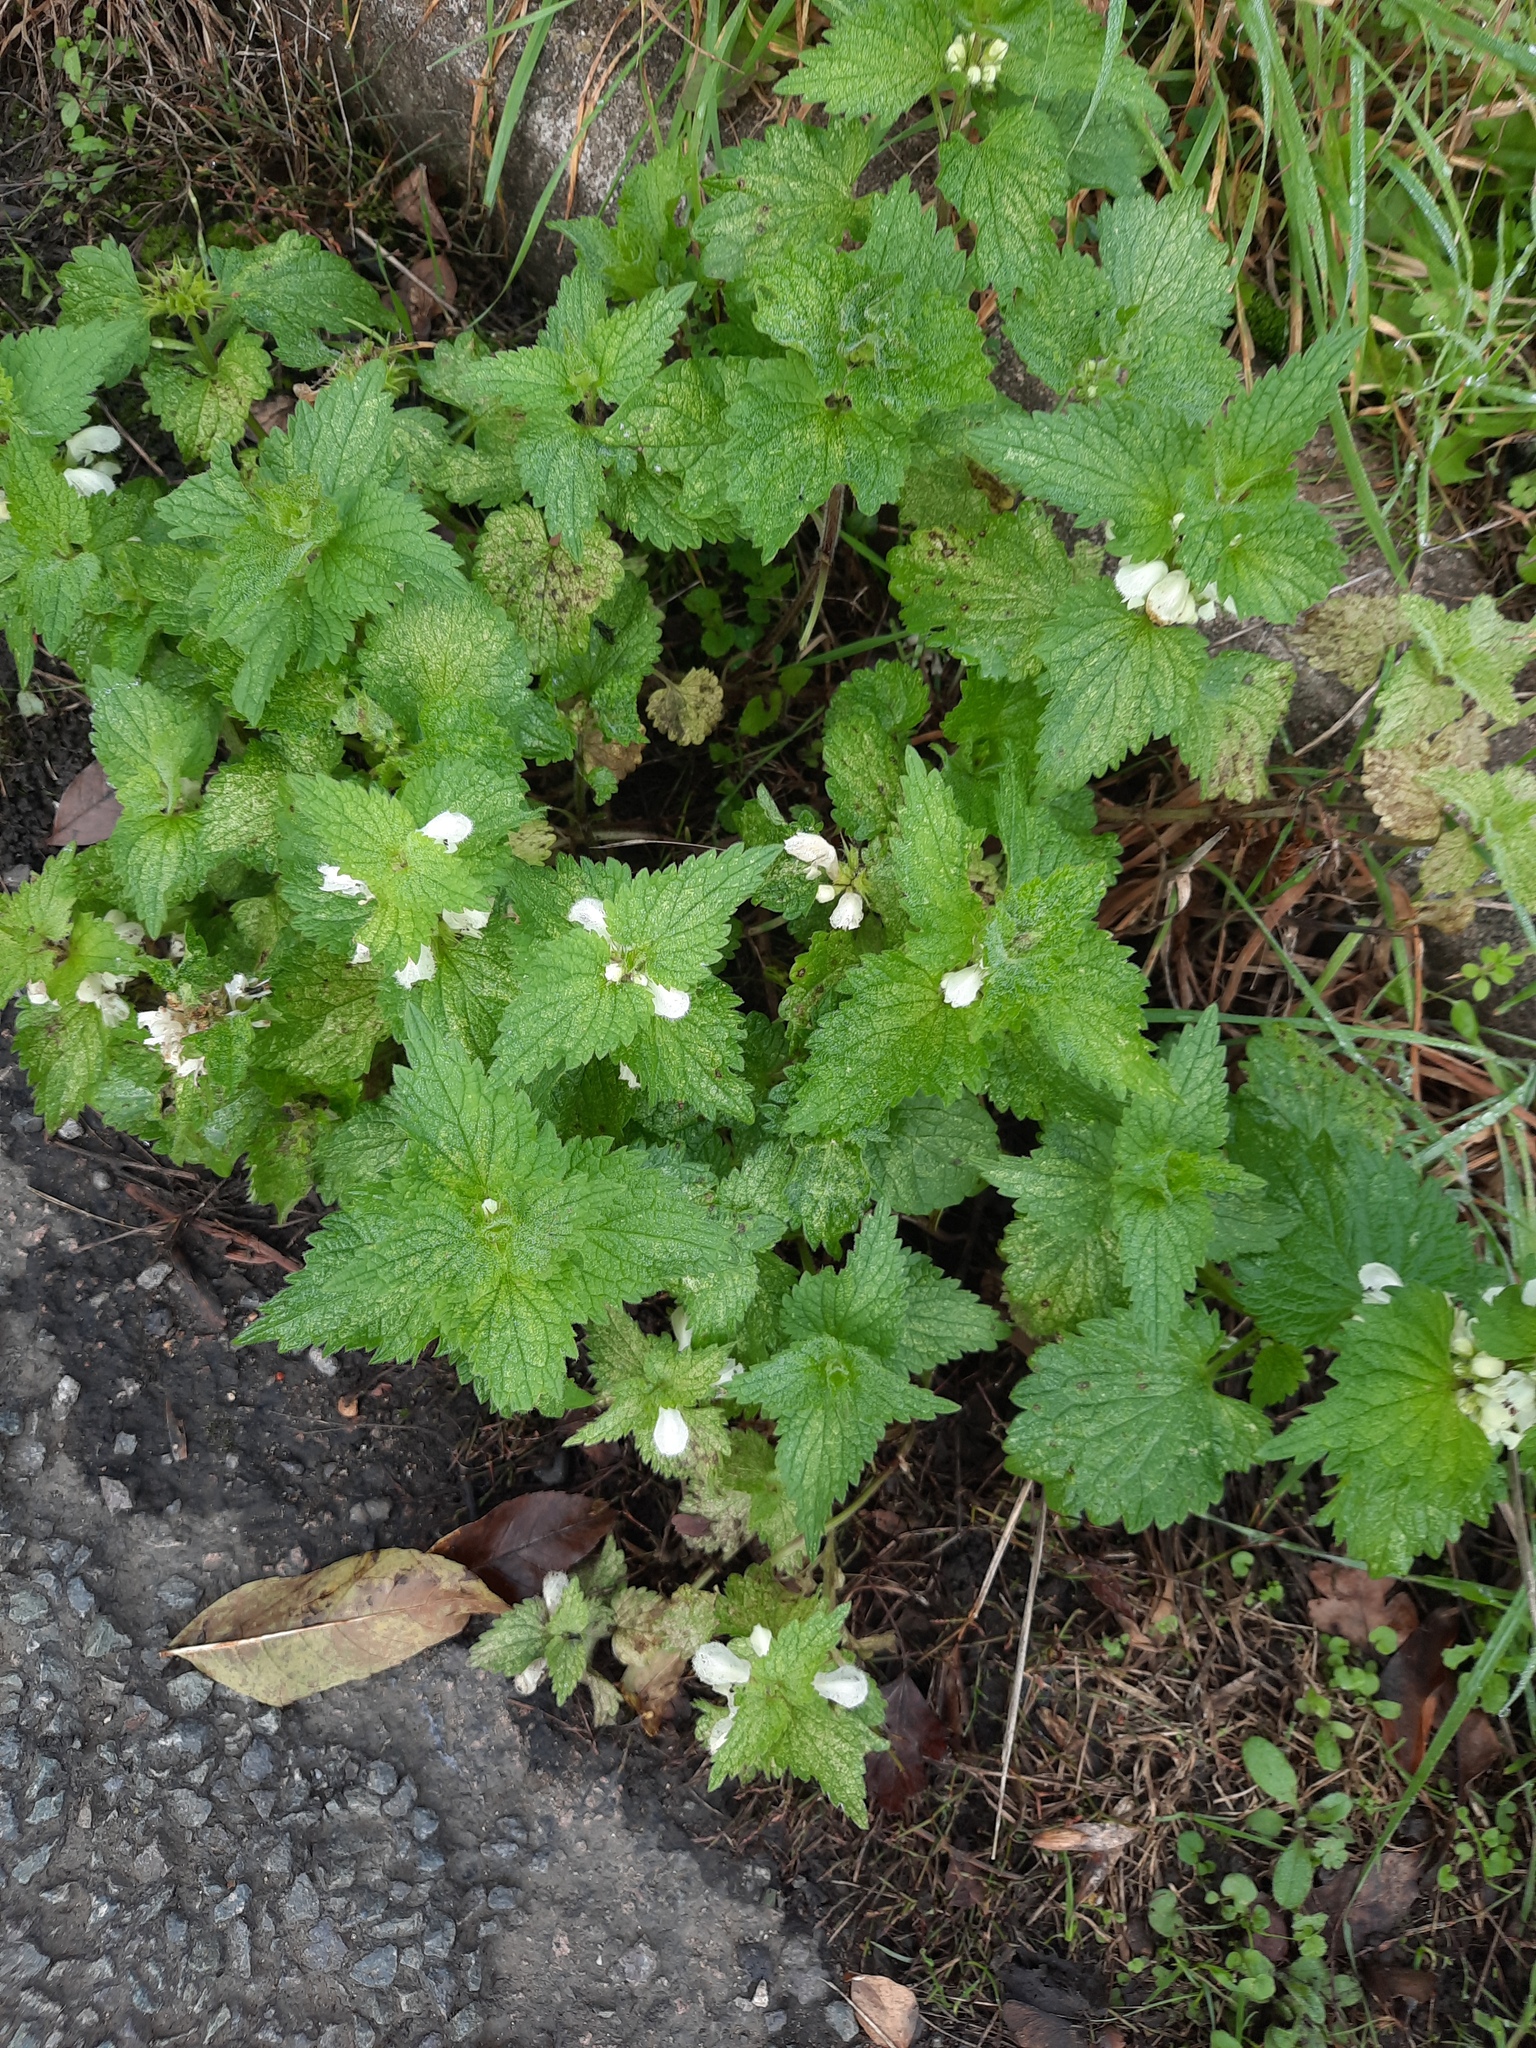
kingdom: Plantae
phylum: Tracheophyta
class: Magnoliopsida
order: Lamiales
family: Lamiaceae
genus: Lamium
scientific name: Lamium album
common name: White dead-nettle
